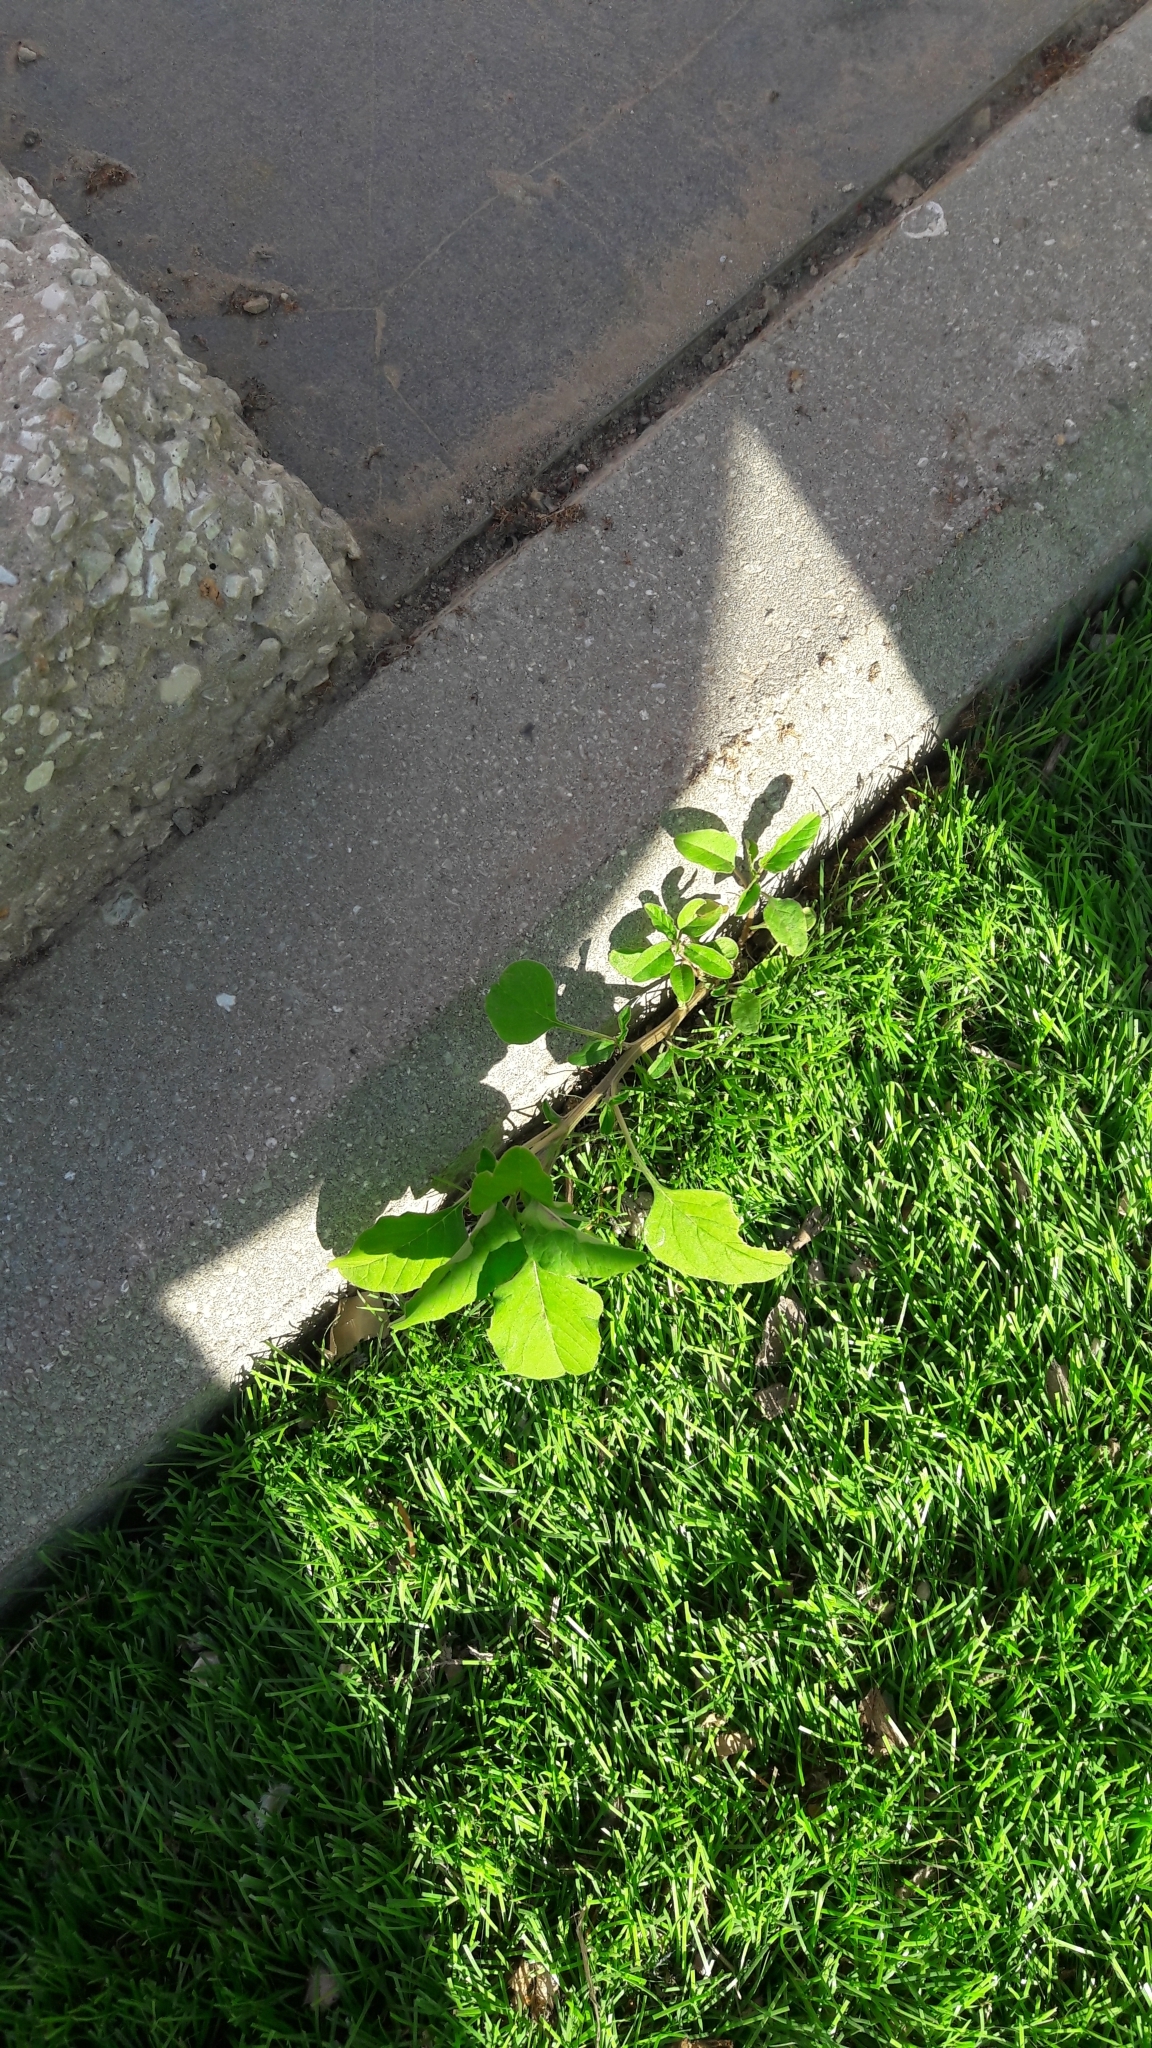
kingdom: Plantae
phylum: Tracheophyta
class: Magnoliopsida
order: Caryophyllales
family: Amaranthaceae
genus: Amaranthus
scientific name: Amaranthus
